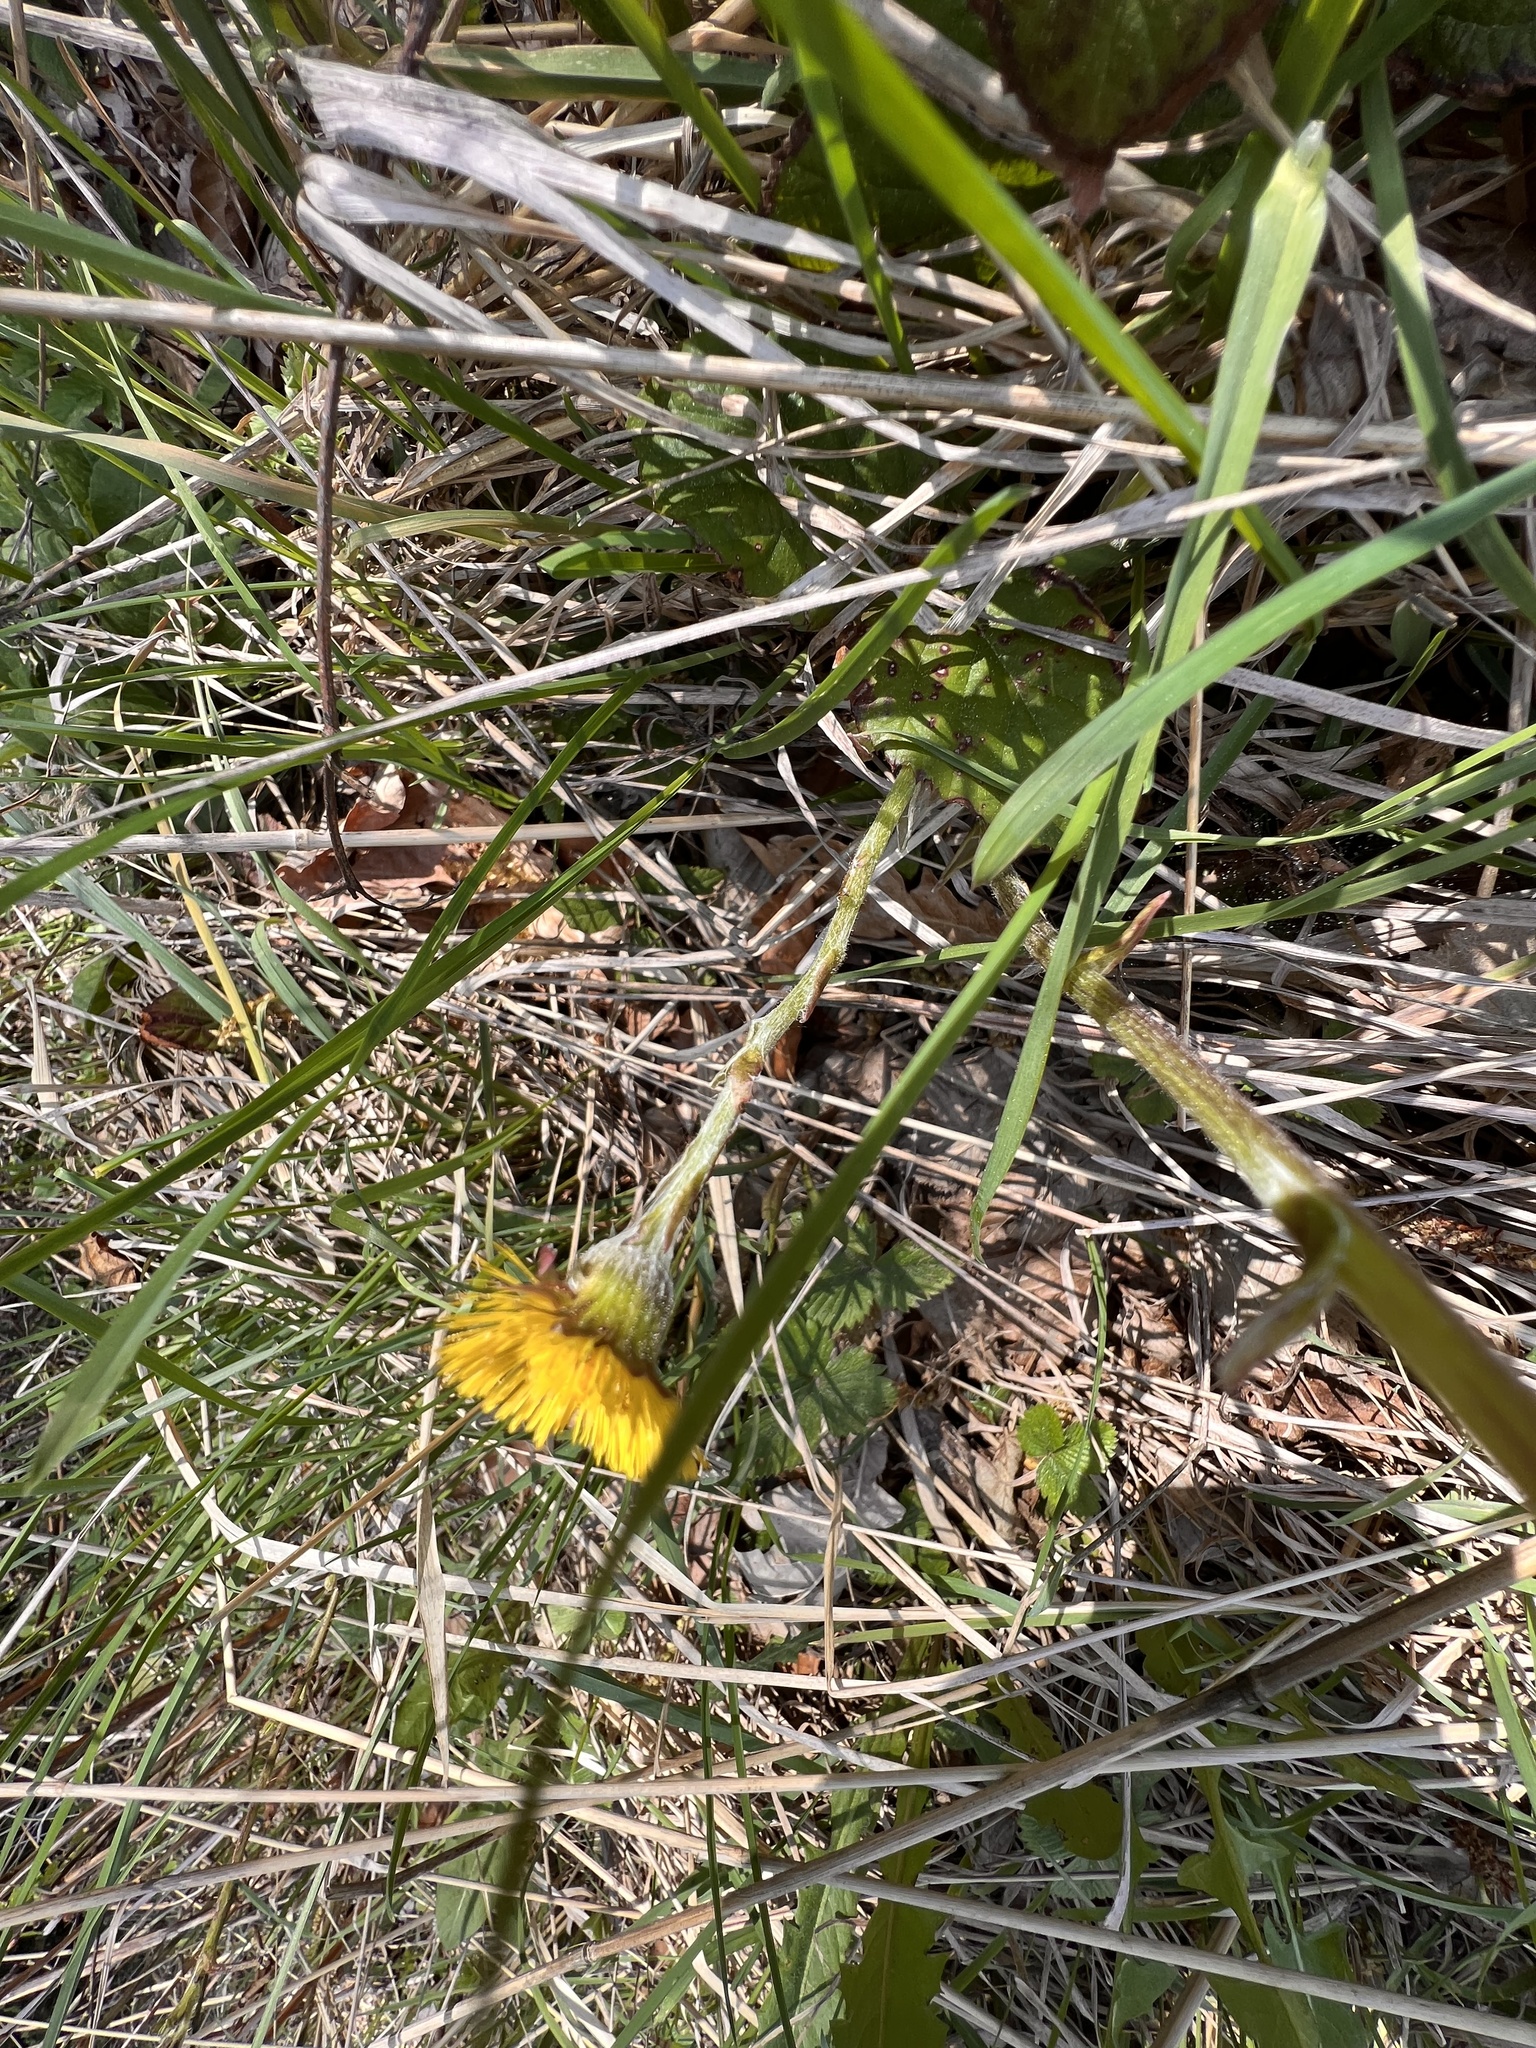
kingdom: Plantae
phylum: Tracheophyta
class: Magnoliopsida
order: Asterales
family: Asteraceae
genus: Tussilago
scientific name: Tussilago farfara
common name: Coltsfoot
